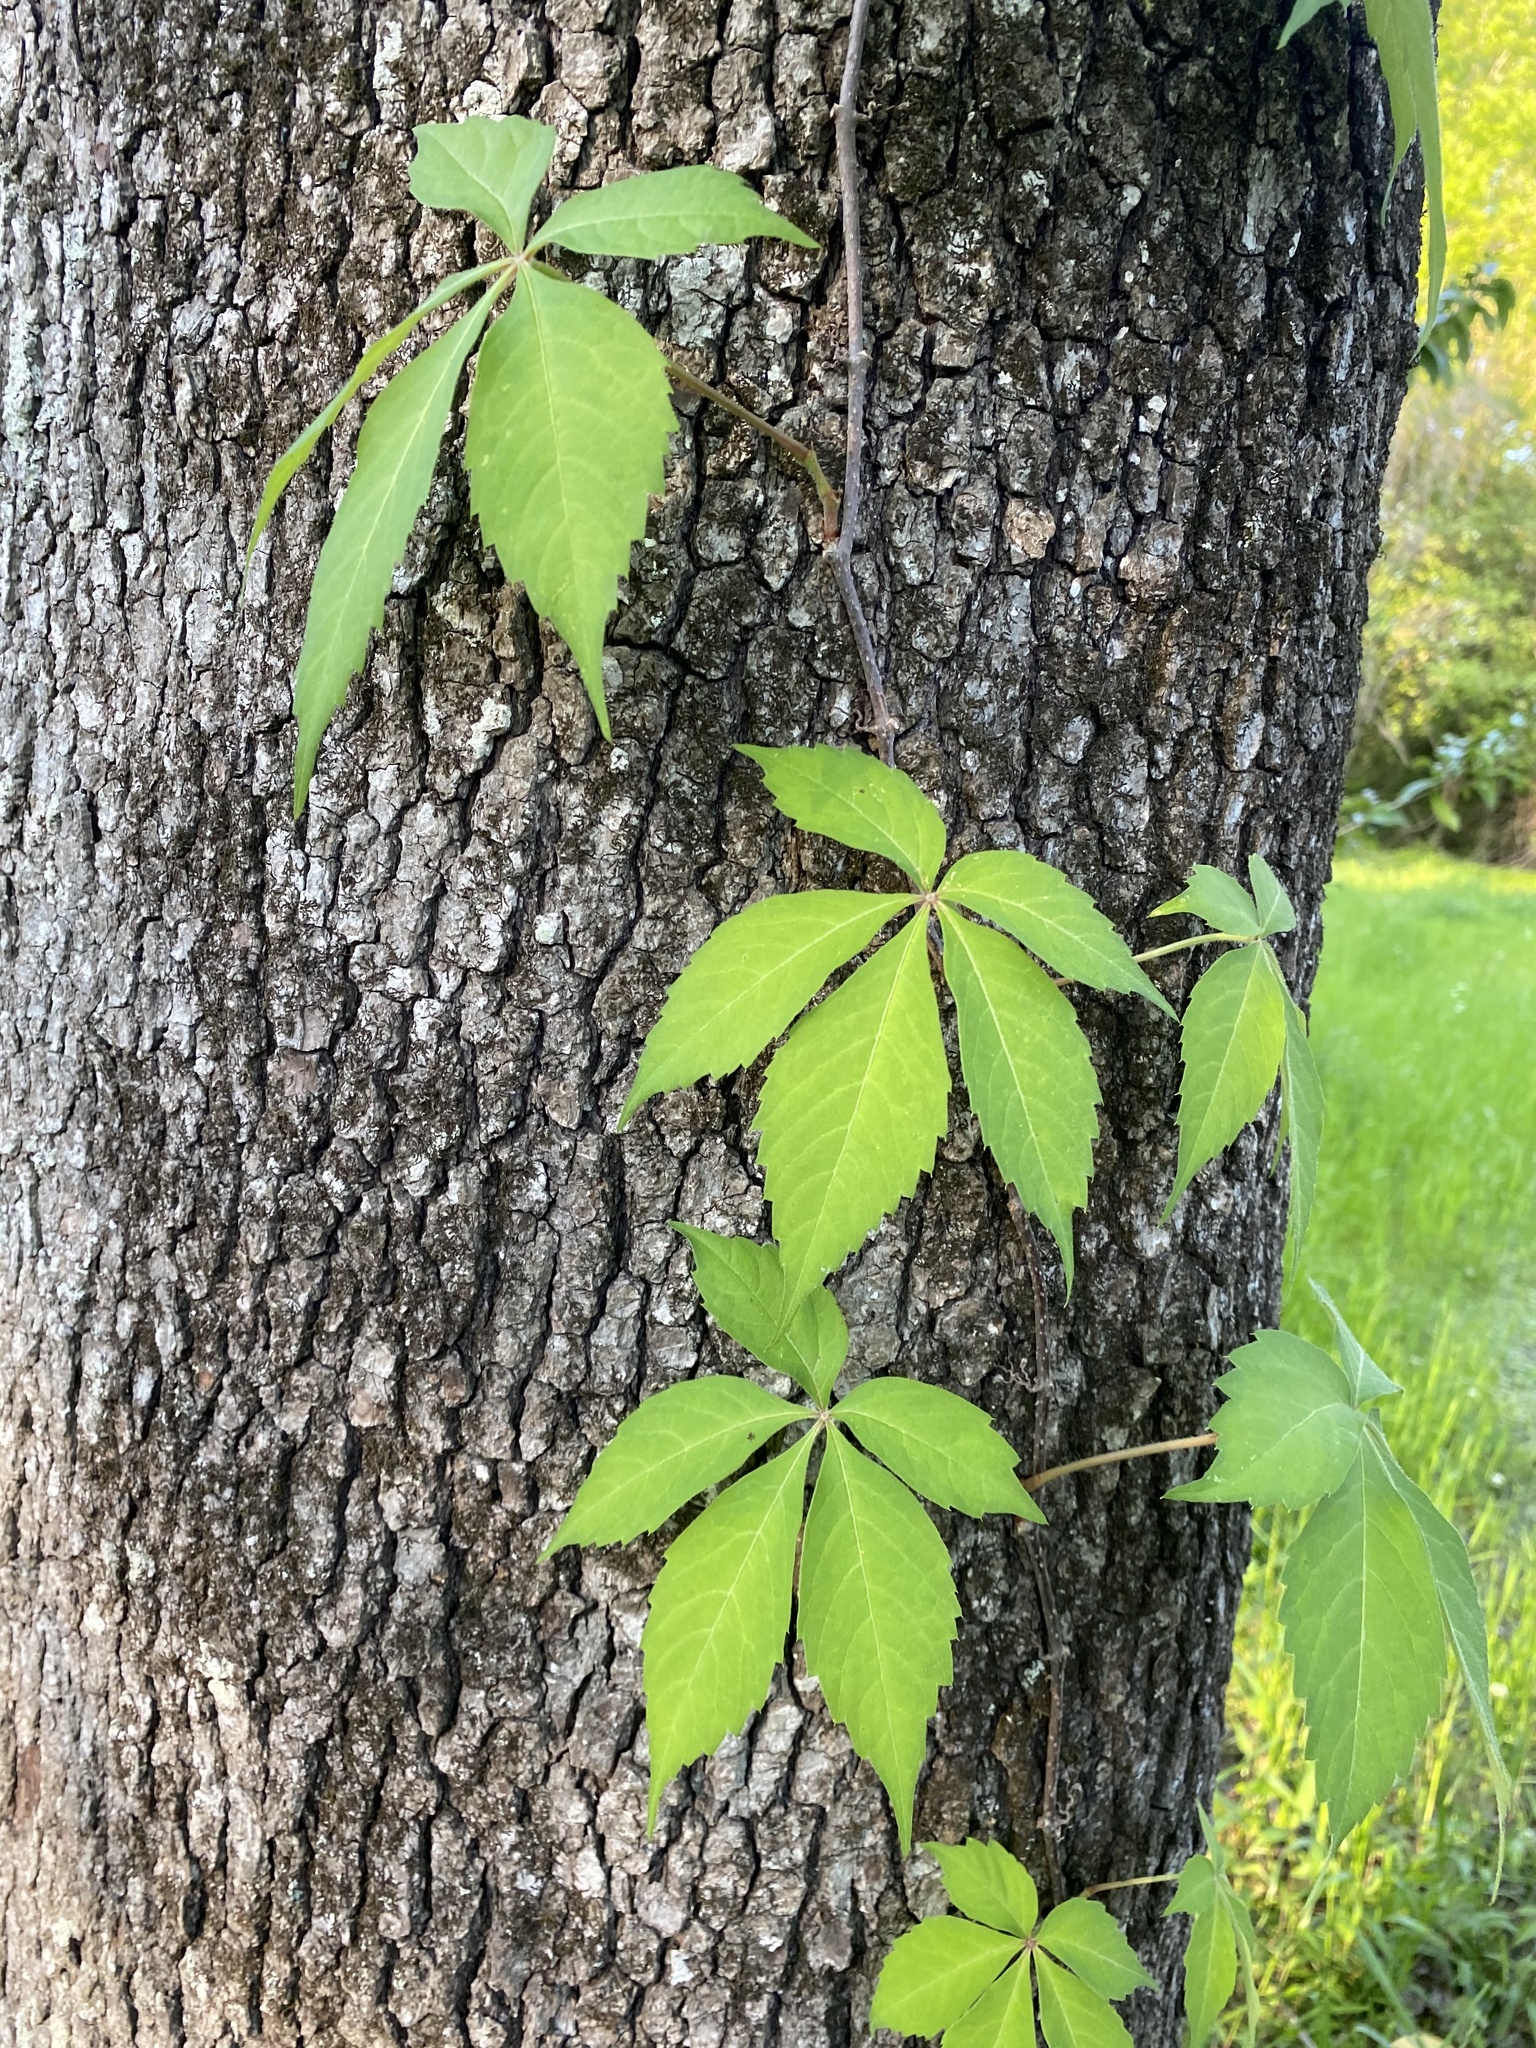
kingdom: Plantae
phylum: Tracheophyta
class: Magnoliopsida
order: Vitales
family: Vitaceae
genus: Parthenocissus
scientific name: Parthenocissus quinquefolia
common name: Virginia-creeper
